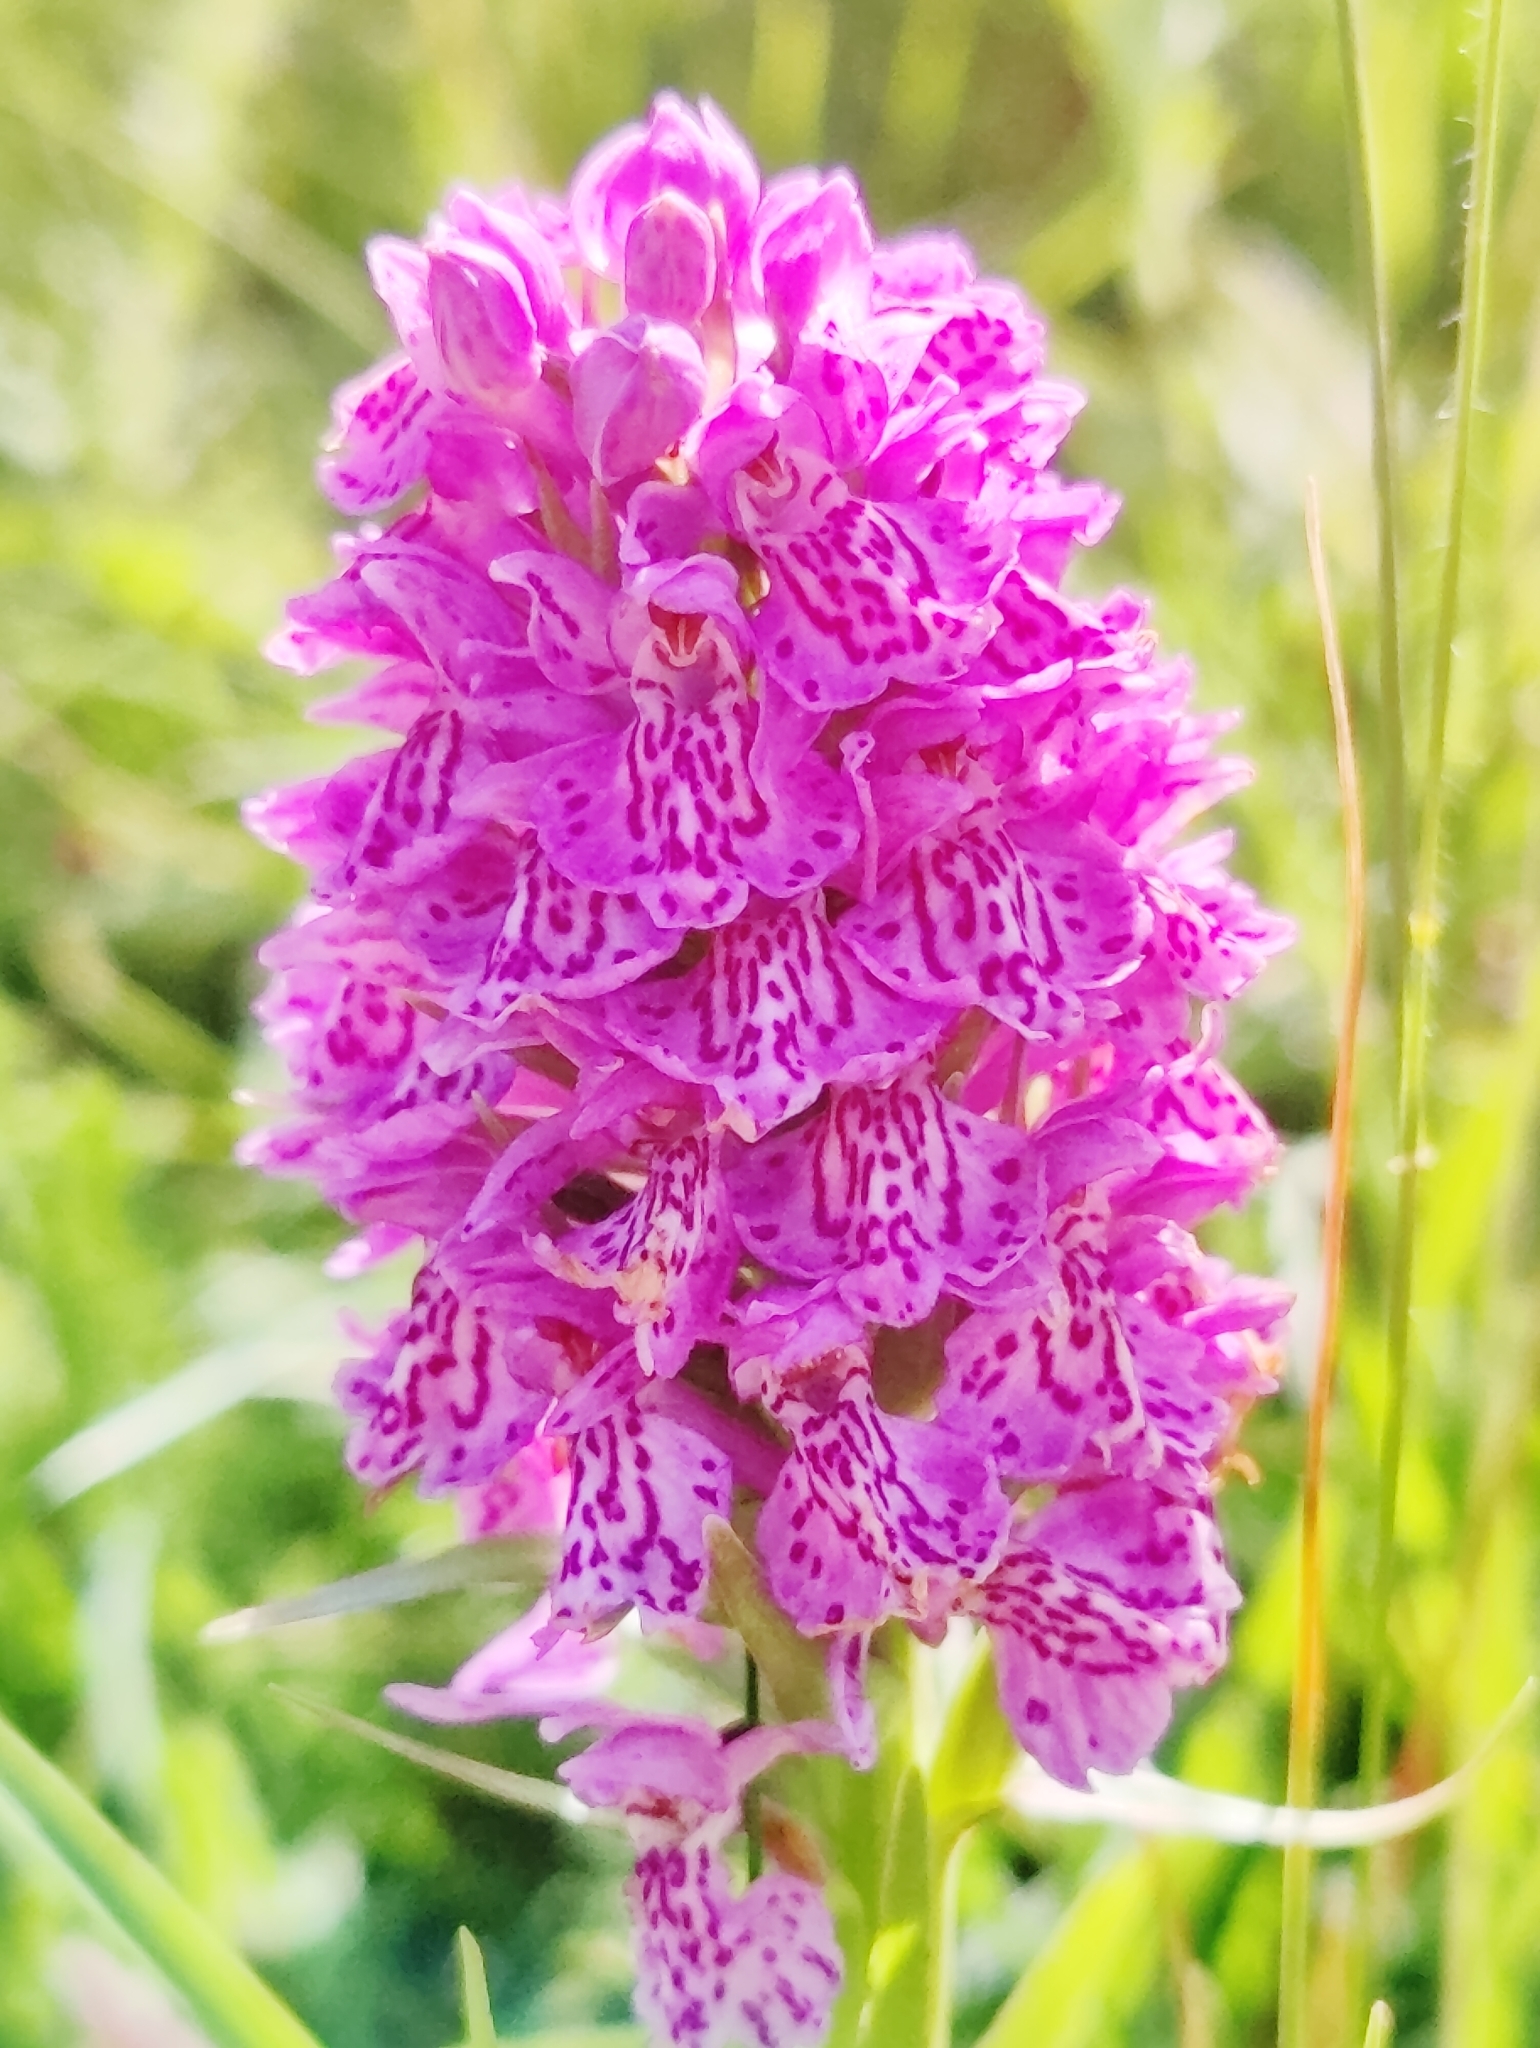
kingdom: Plantae
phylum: Tracheophyta
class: Liliopsida
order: Asparagales
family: Orchidaceae
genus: Dactylorhiza
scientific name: Dactylorhiza majalis
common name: Marsh orchid
